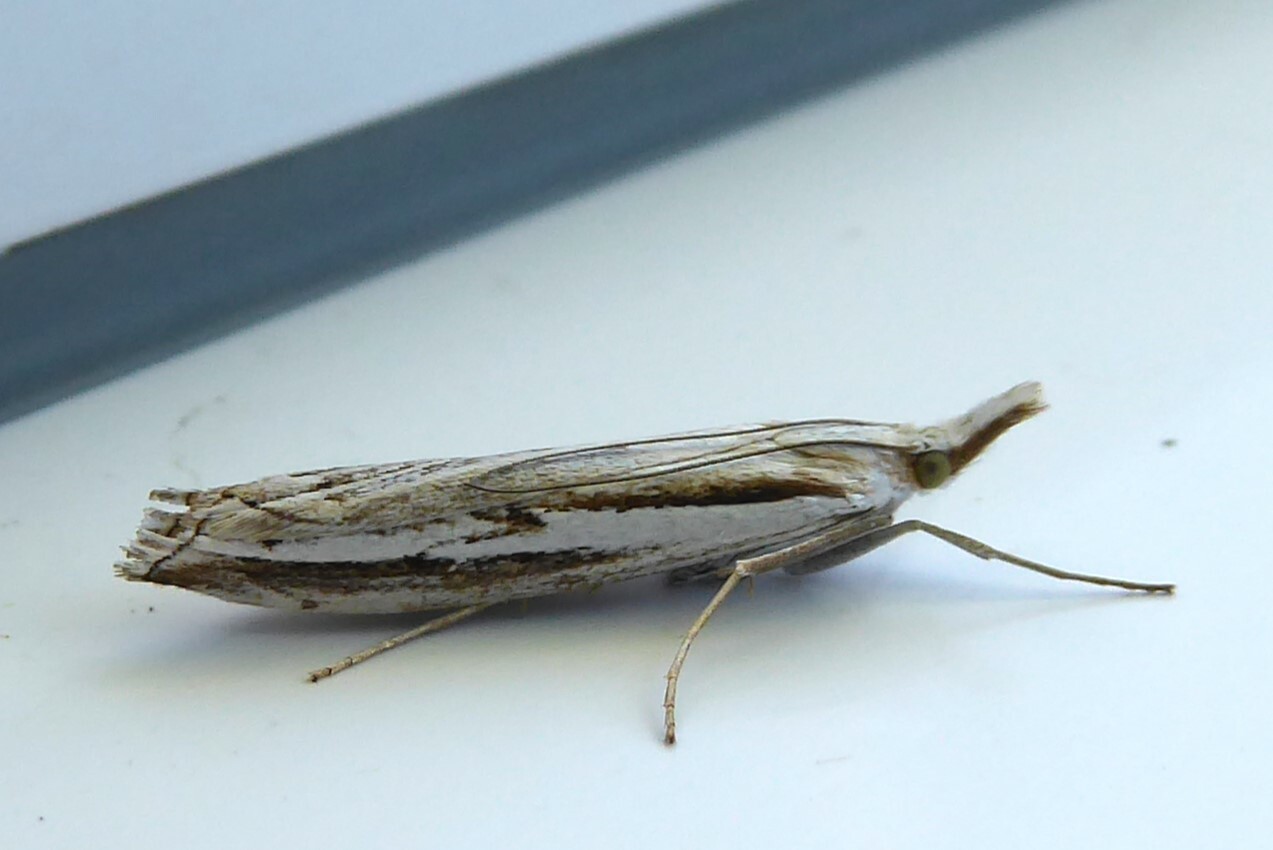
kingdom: Animalia
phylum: Arthropoda
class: Insecta
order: Lepidoptera
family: Crambidae
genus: Orocrambus
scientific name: Orocrambus vittellus
